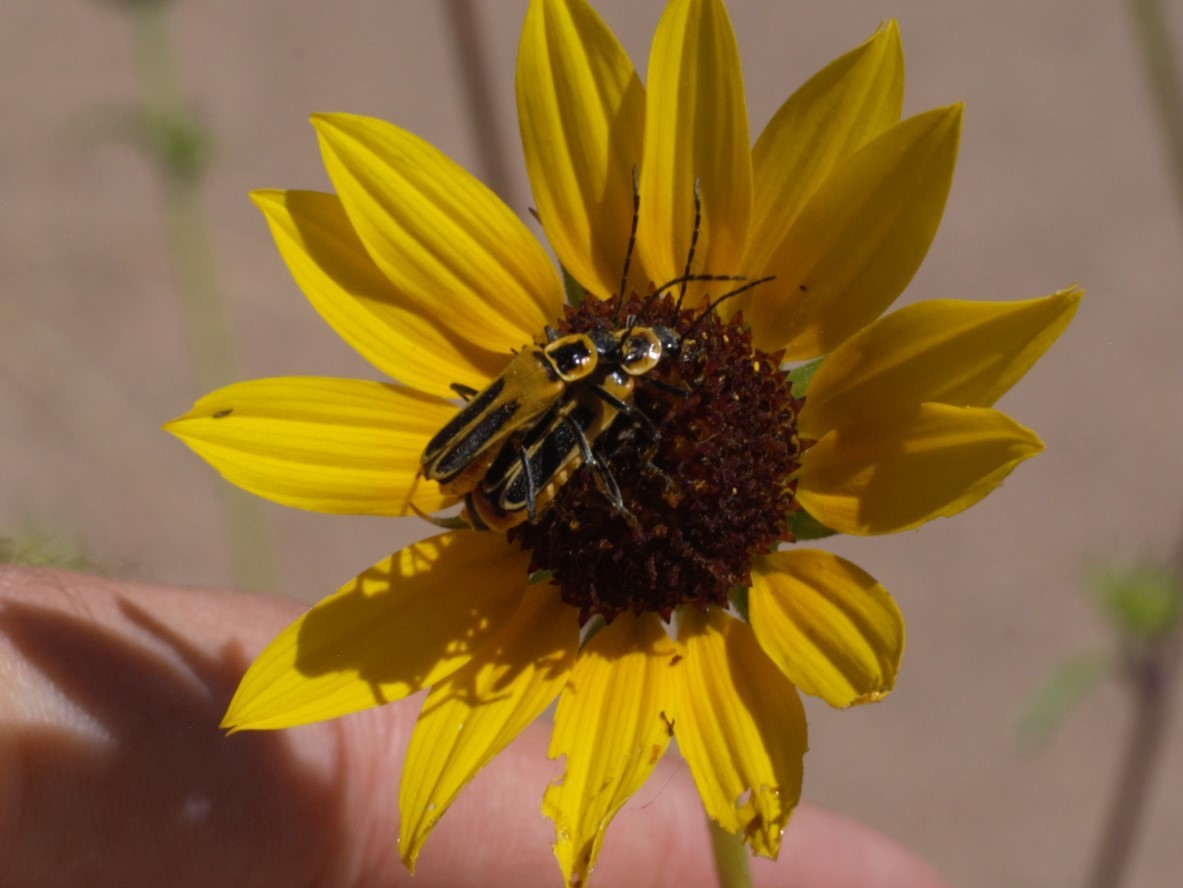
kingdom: Animalia
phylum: Arthropoda
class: Insecta
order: Coleoptera
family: Cantharidae
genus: Chauliognathus
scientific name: Chauliognathus lewisi
